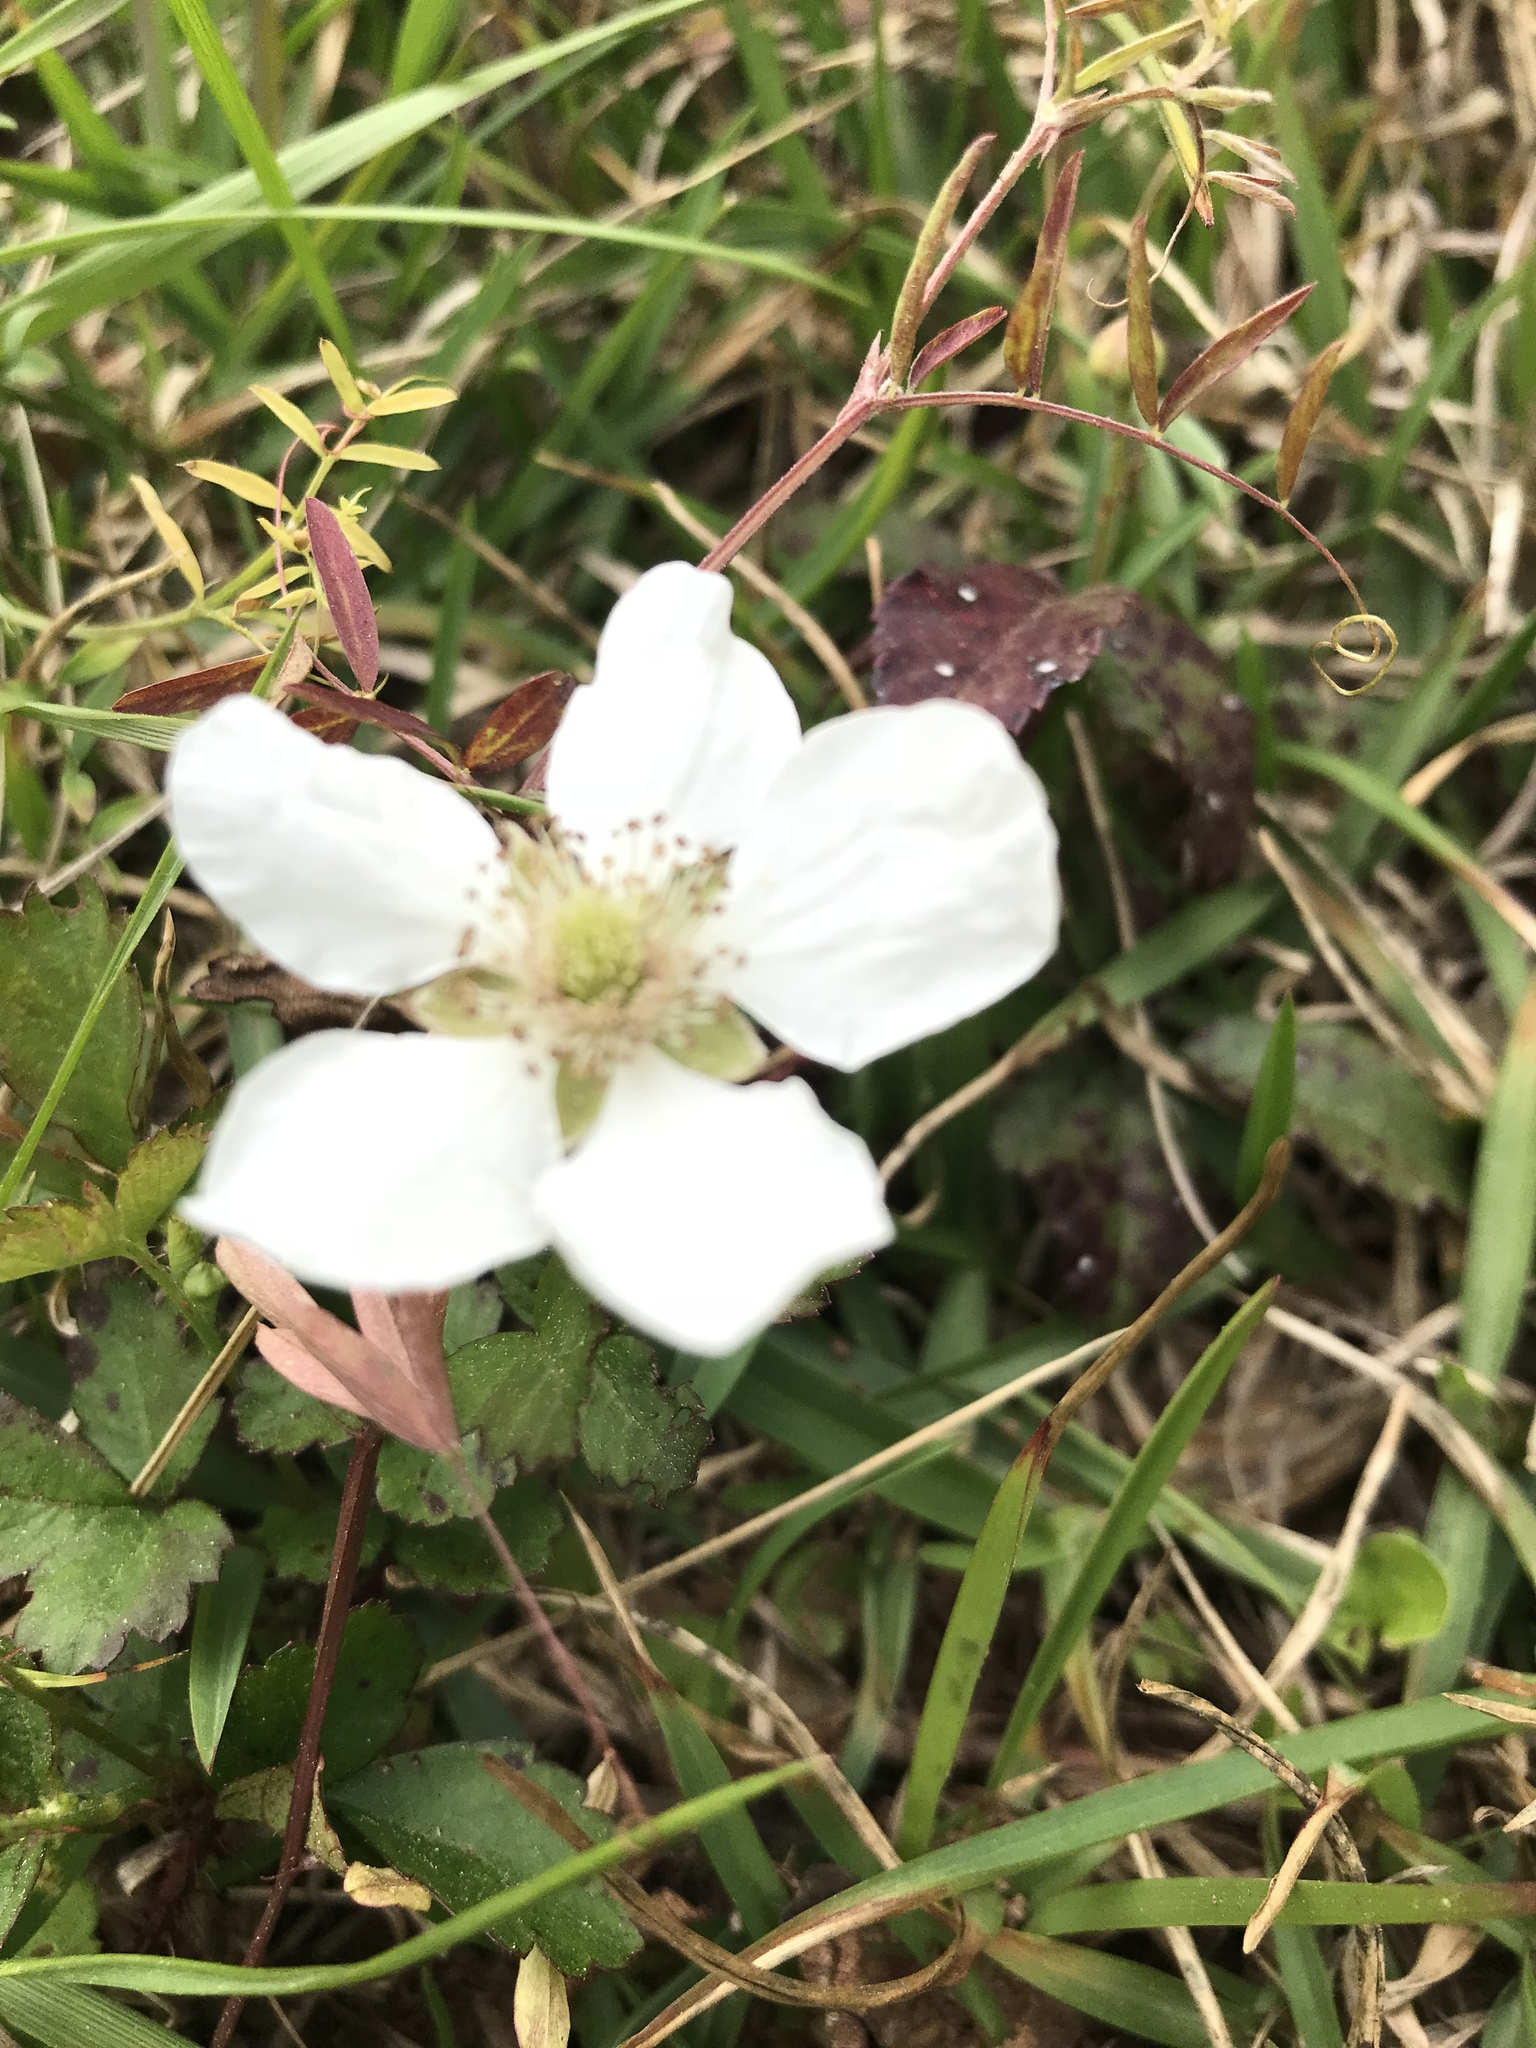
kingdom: Plantae
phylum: Tracheophyta
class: Magnoliopsida
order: Rosales
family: Rosaceae
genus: Rubus
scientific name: Rubus trivialis
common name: Southern dewberry
